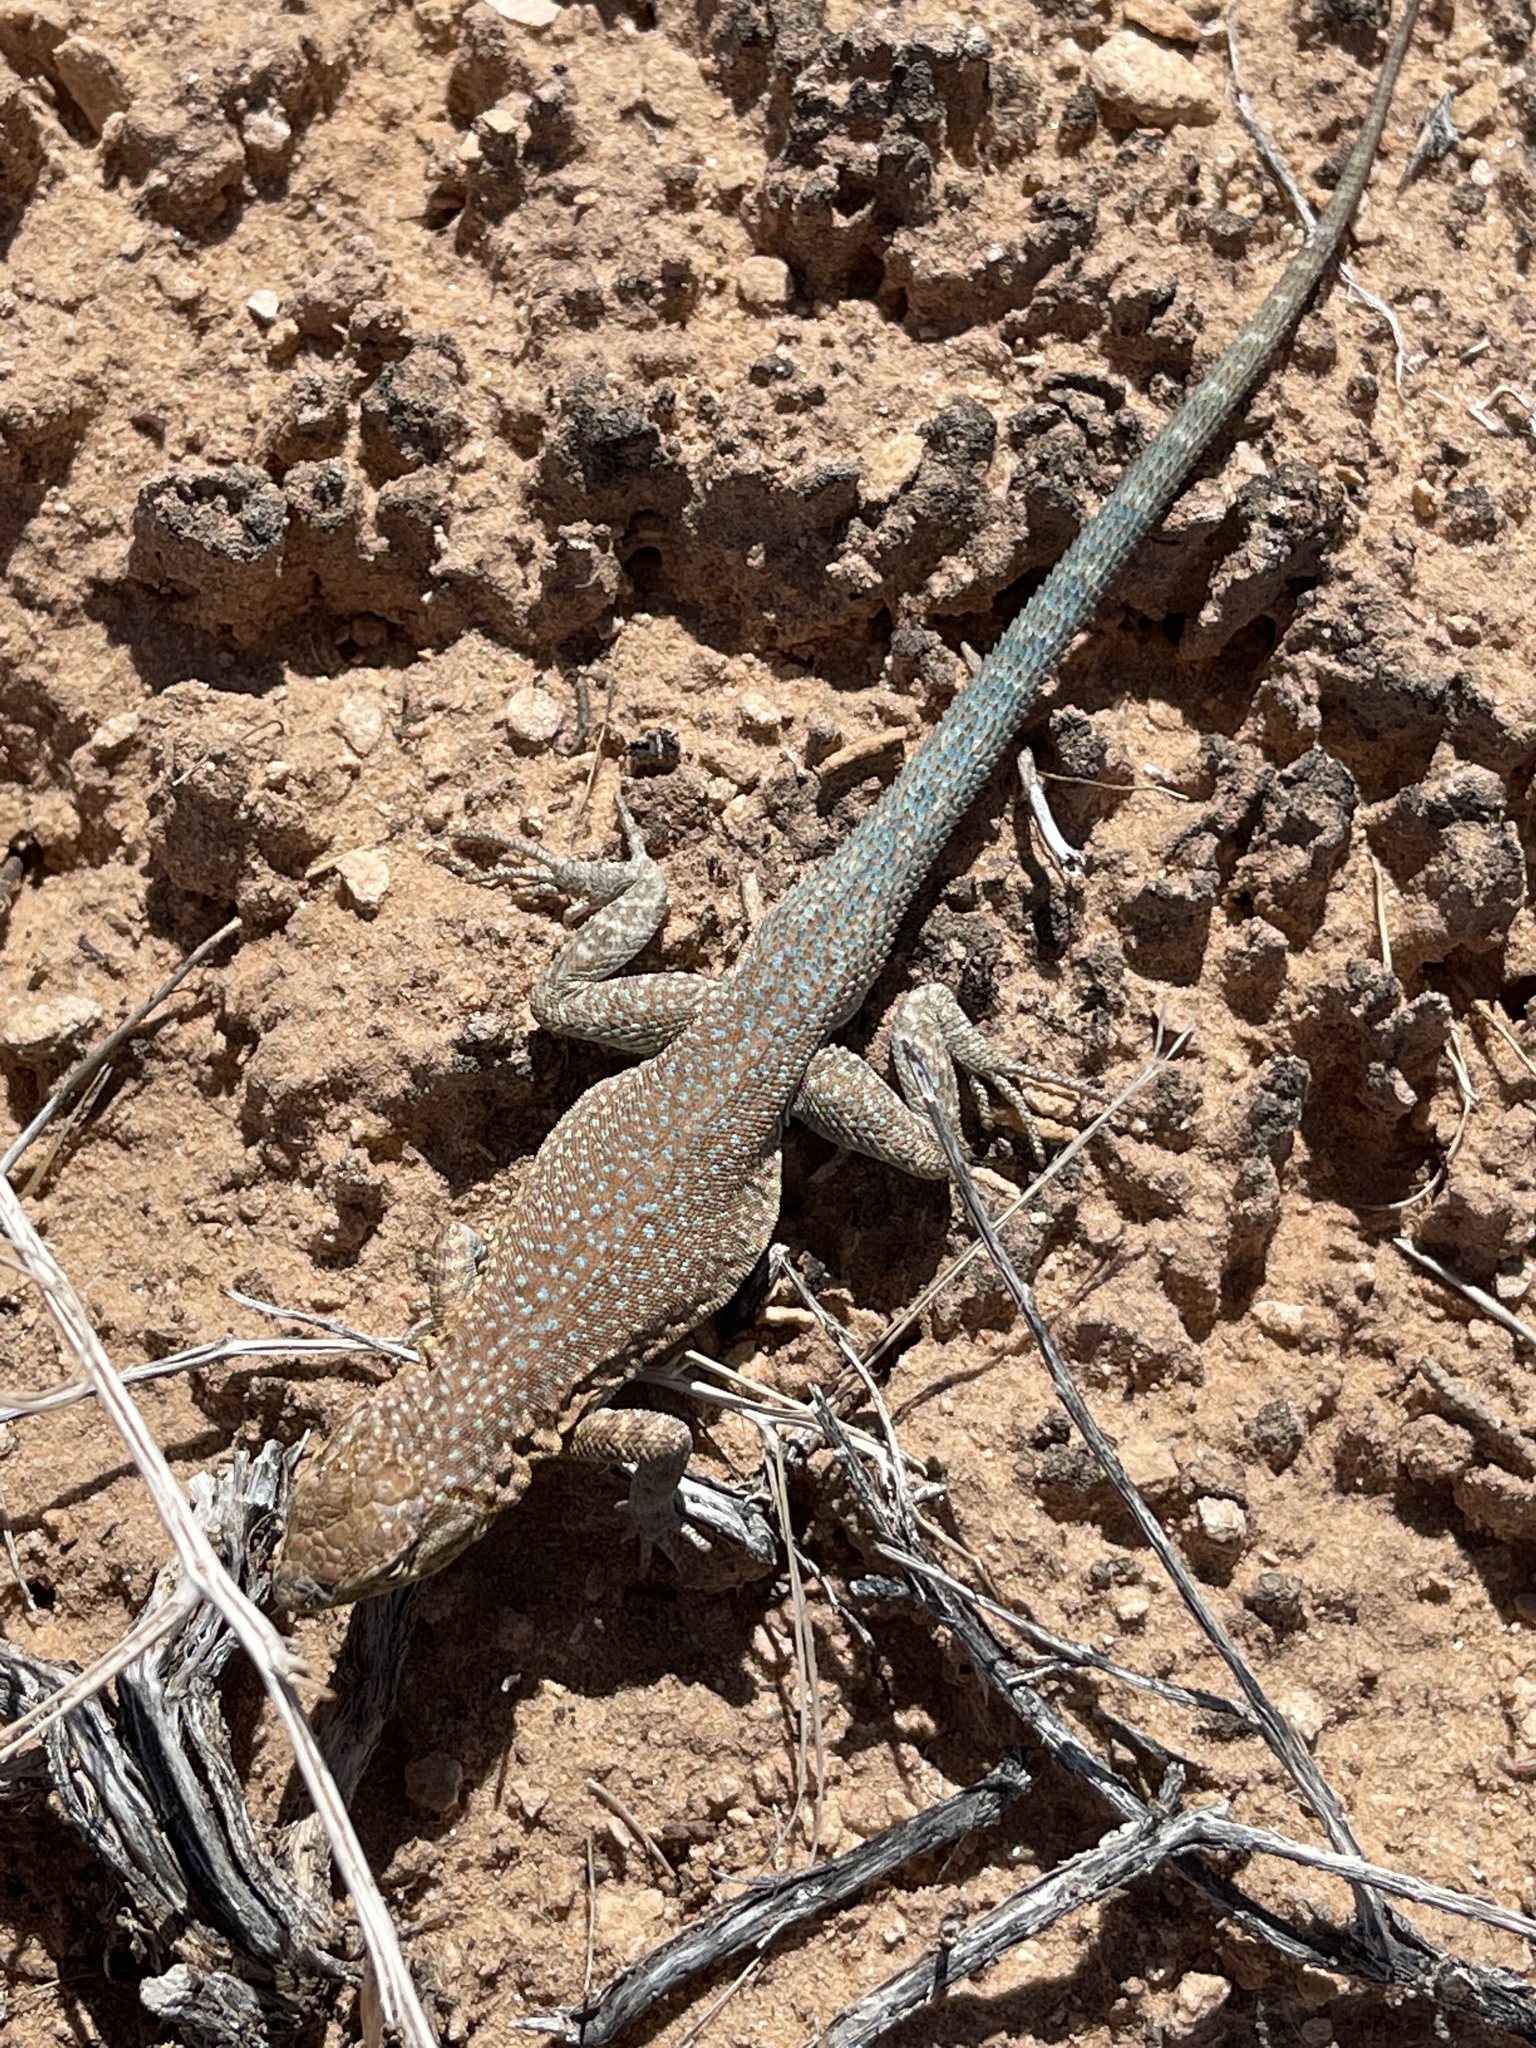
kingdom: Animalia
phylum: Chordata
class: Squamata
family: Phrynosomatidae
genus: Uta
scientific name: Uta stansburiana
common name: Side-blotched lizard
